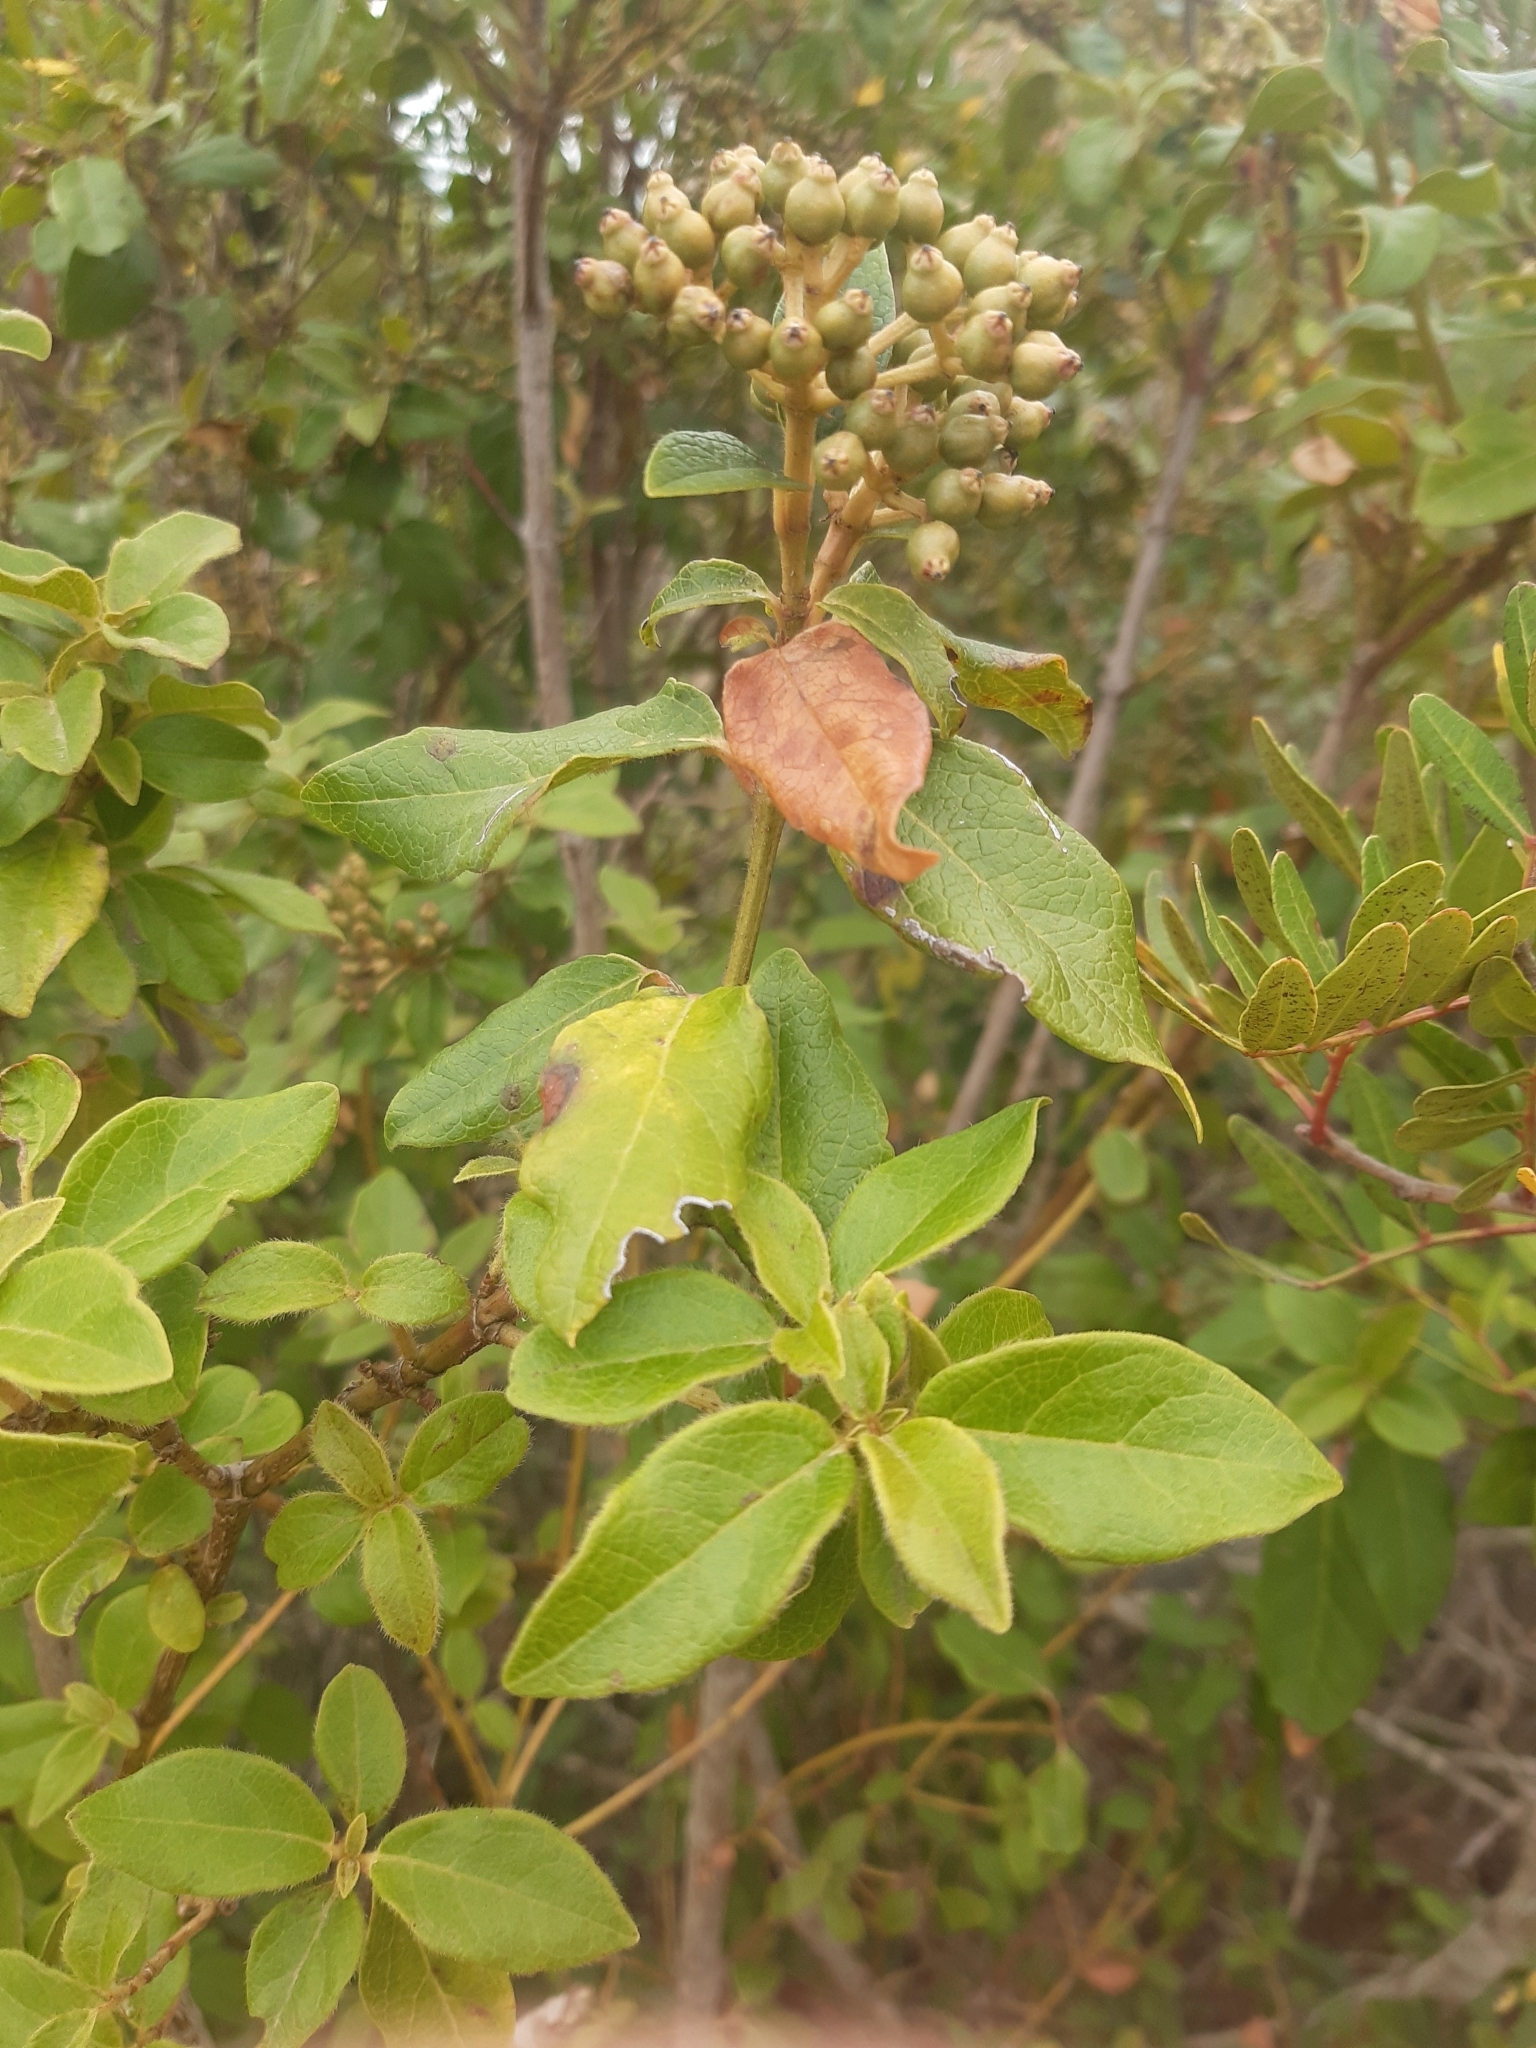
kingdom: Plantae
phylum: Tracheophyta
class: Magnoliopsida
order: Dipsacales
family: Viburnaceae
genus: Viburnum
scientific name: Viburnum tinus
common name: Laurustinus
